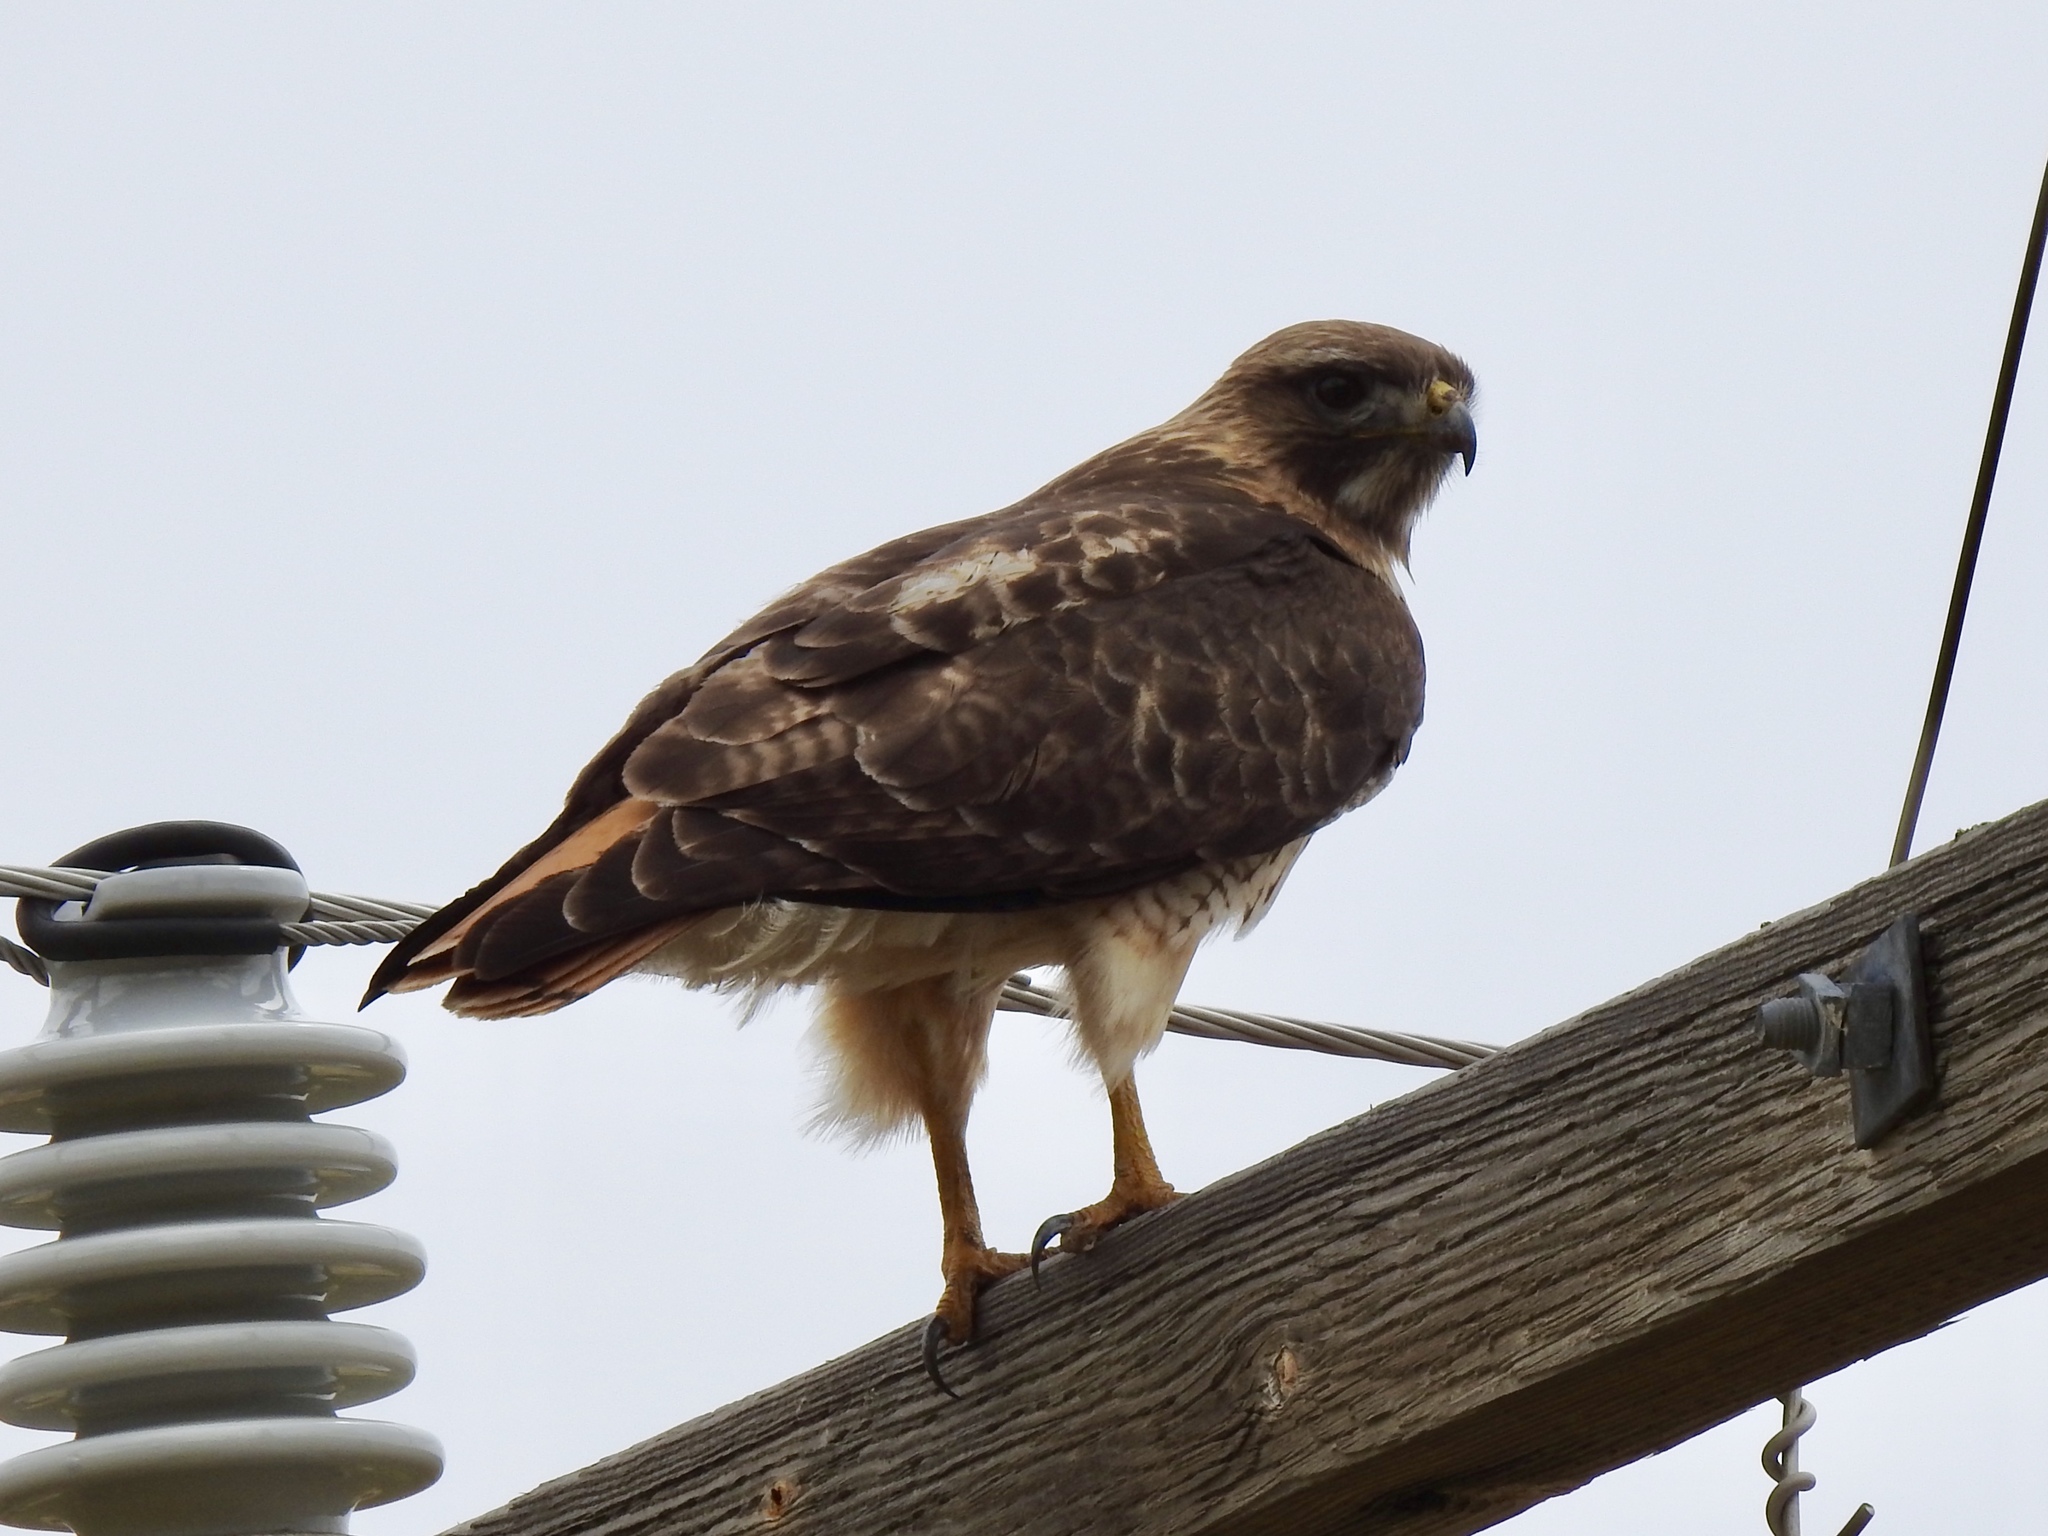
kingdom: Animalia
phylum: Chordata
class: Aves
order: Accipitriformes
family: Accipitridae
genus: Buteo
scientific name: Buteo jamaicensis
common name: Red-tailed hawk
